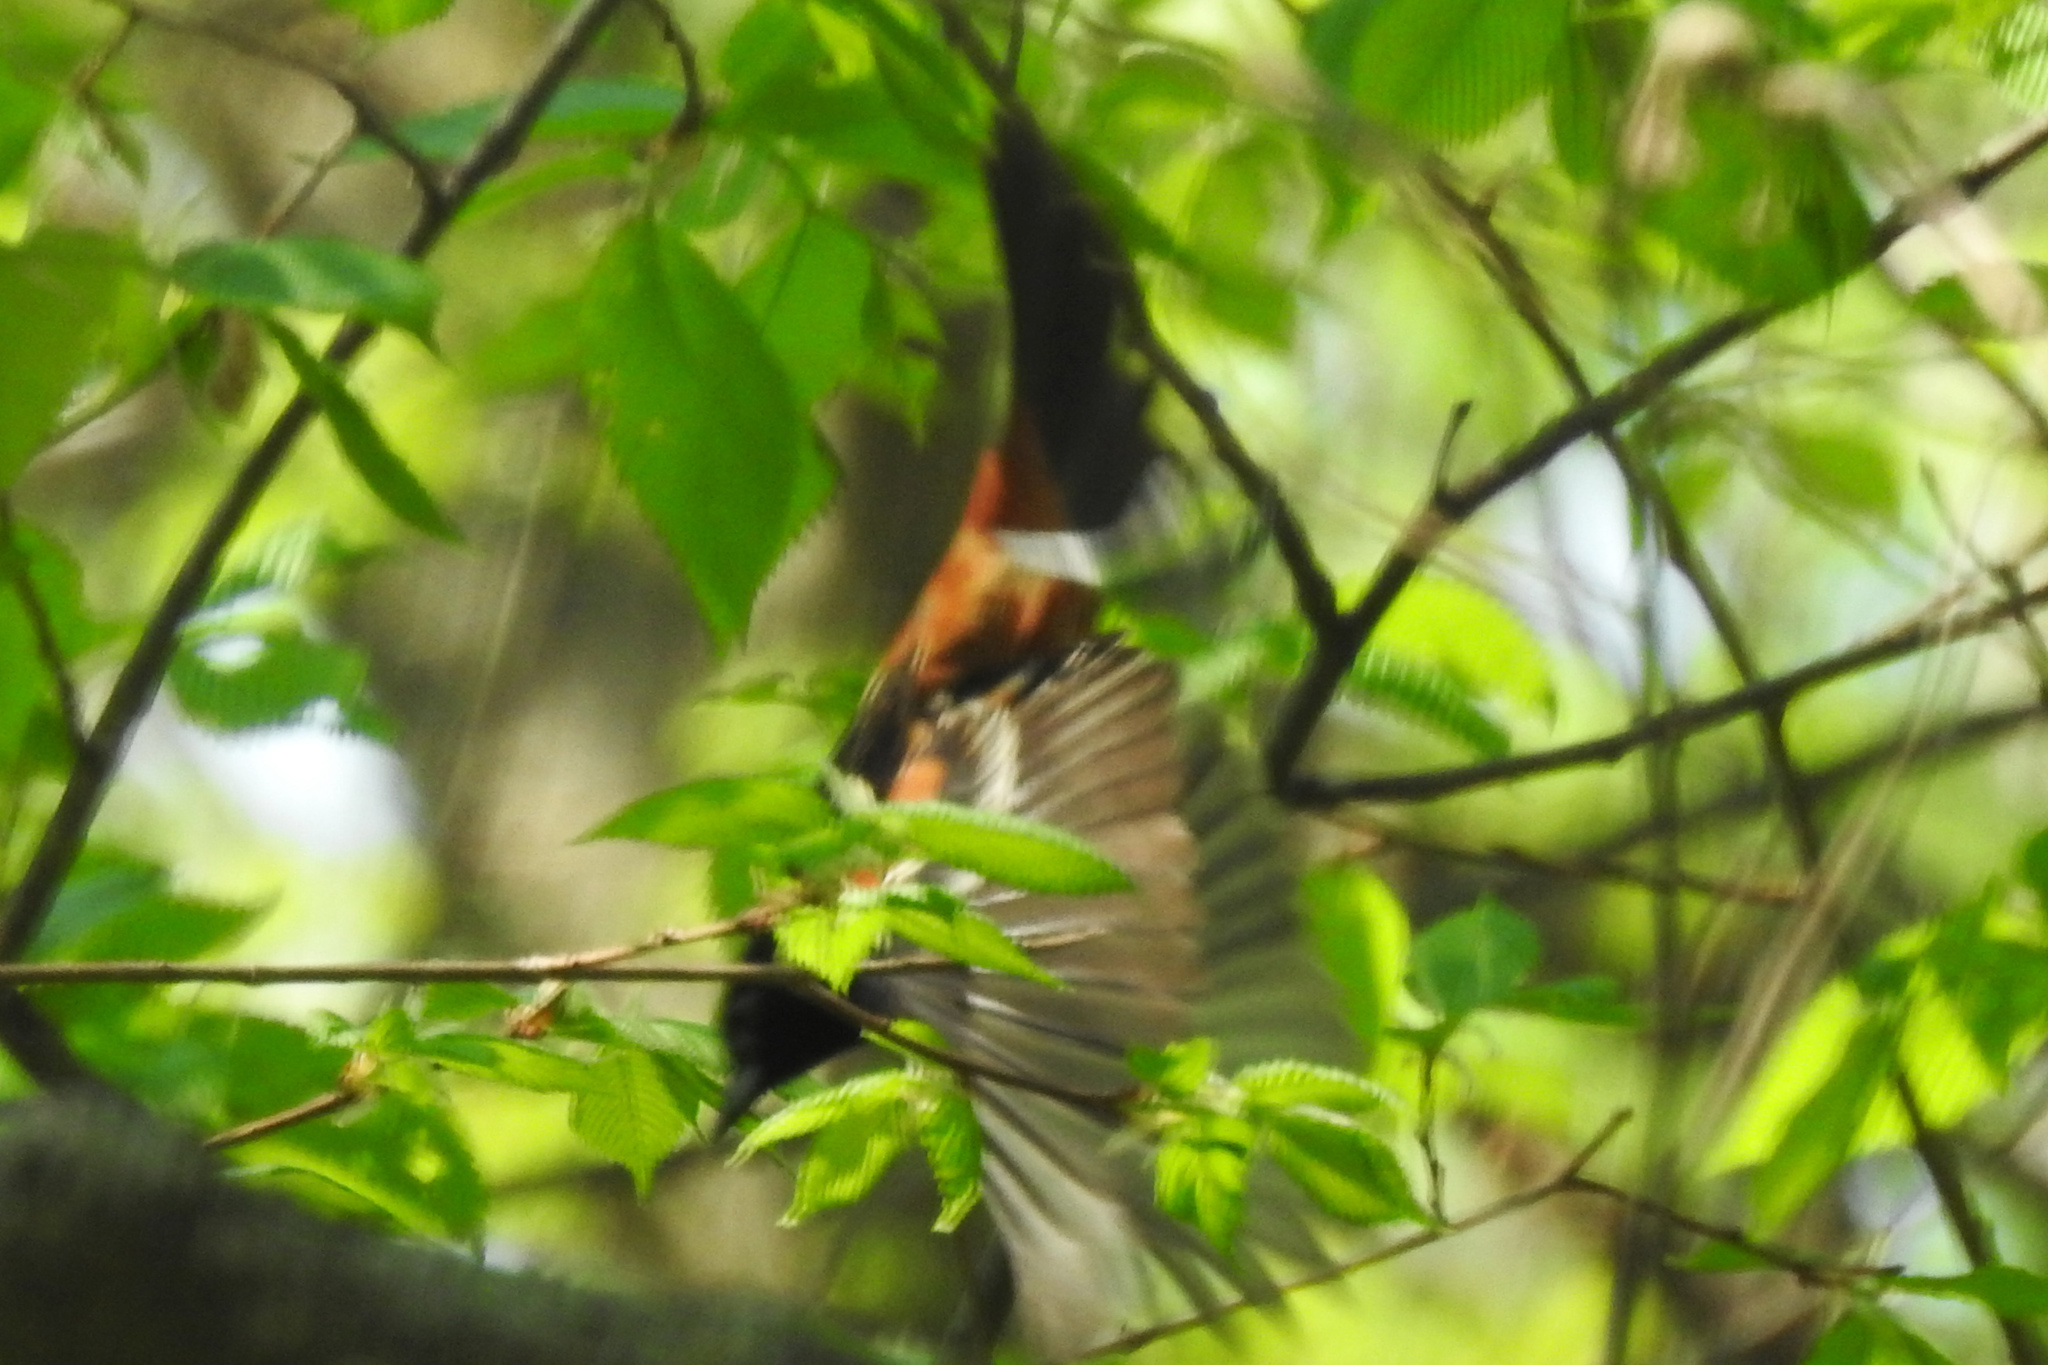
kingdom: Animalia
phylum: Chordata
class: Aves
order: Passeriformes
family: Icteridae
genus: Icterus
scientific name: Icterus spurius
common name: Orchard oriole
